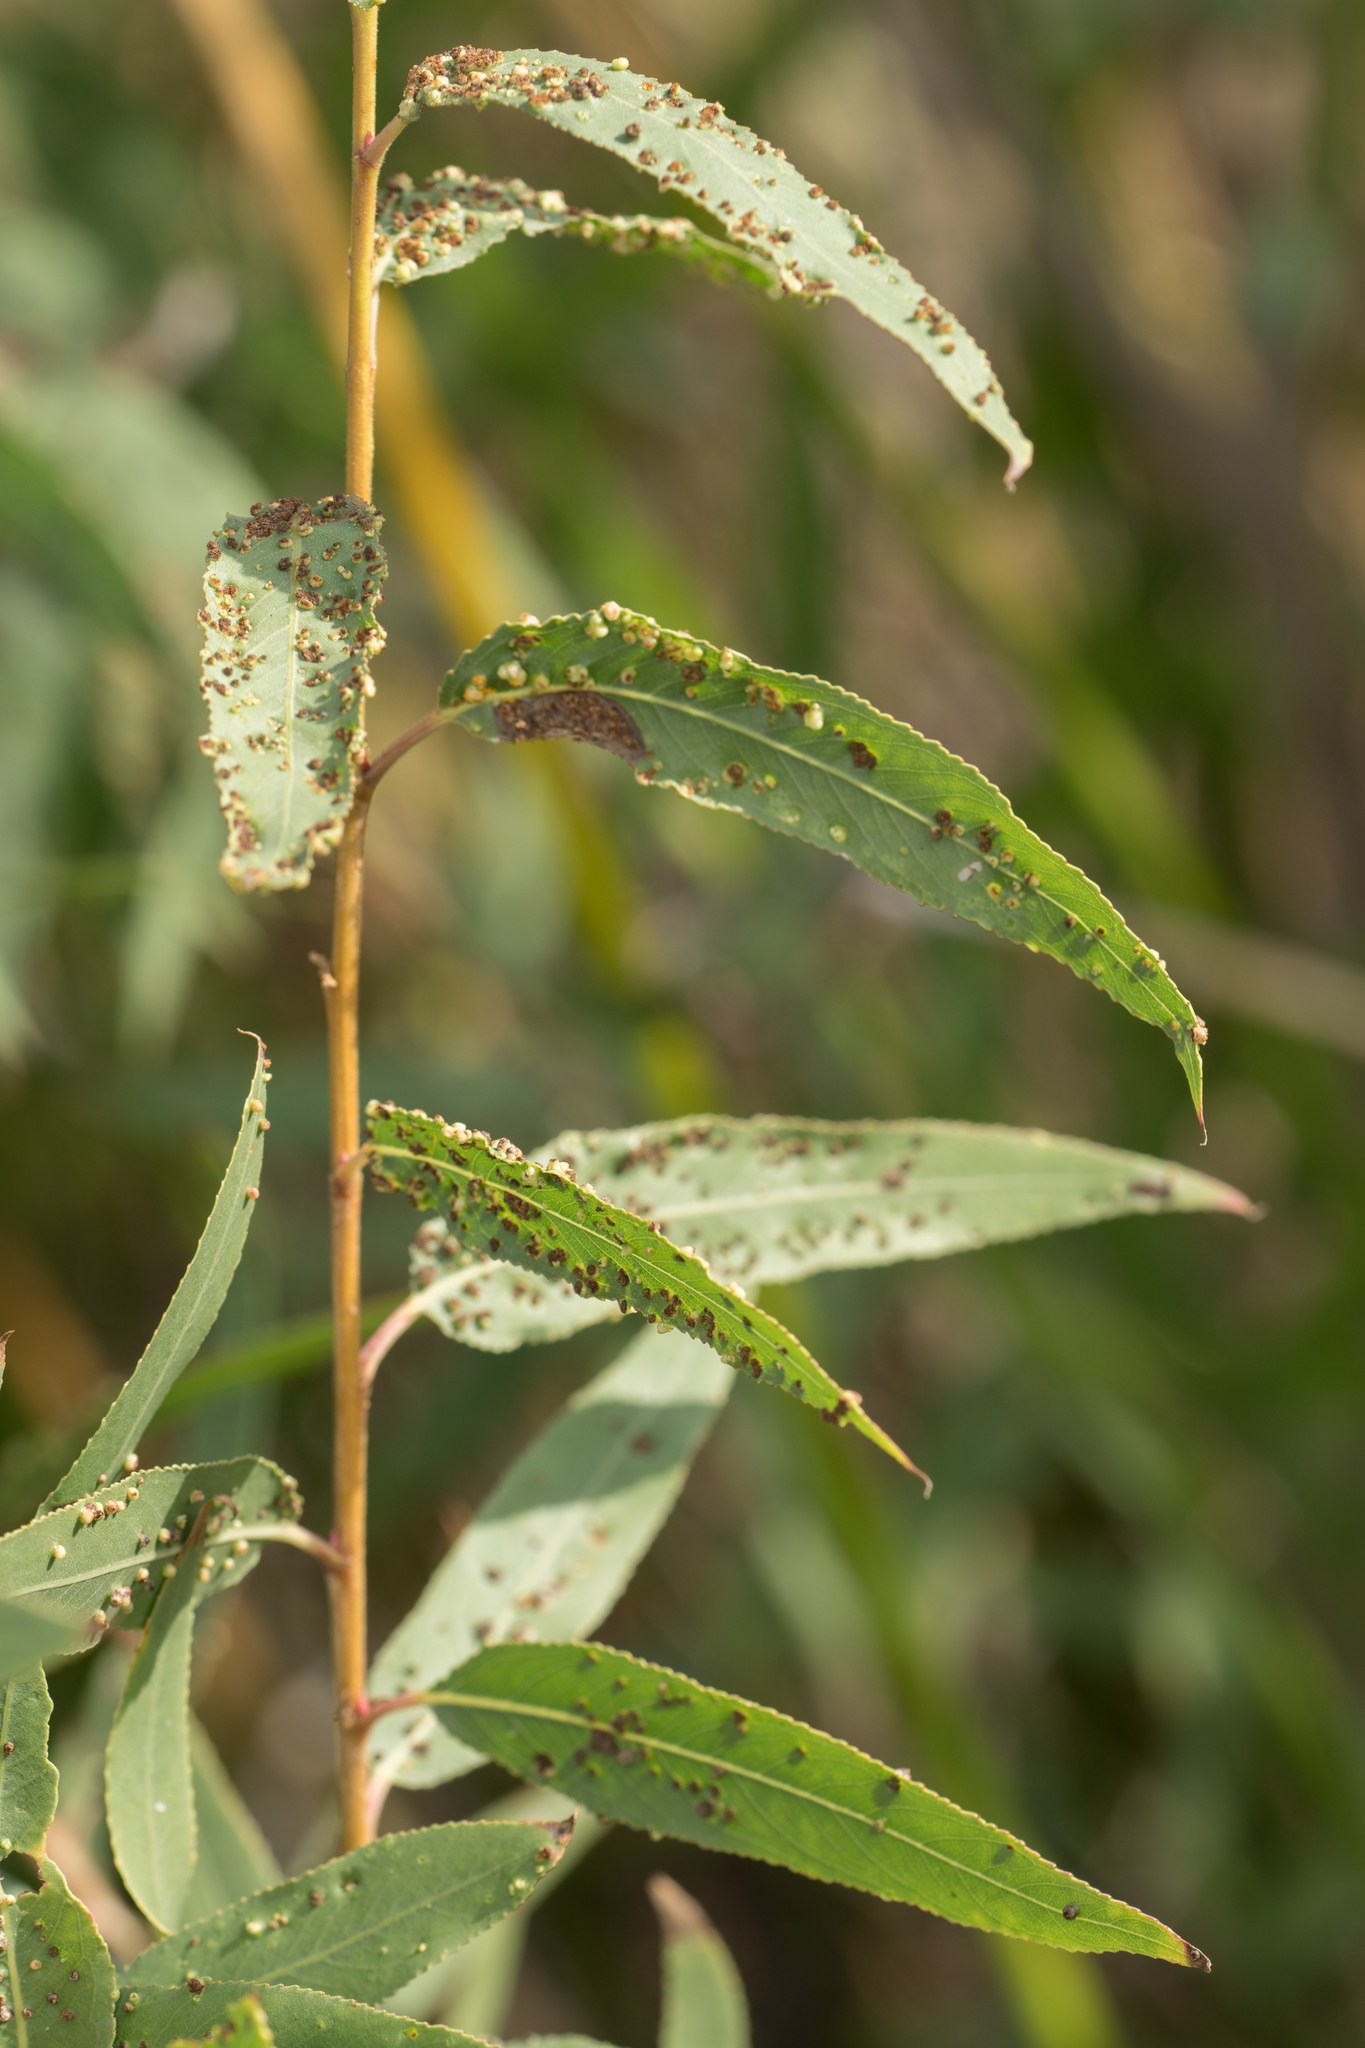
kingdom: Animalia
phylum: Arthropoda
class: Arachnida
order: Trombidiformes
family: Eriophyidae
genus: Aculus
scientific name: Aculus tetanothrix
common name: Willow bead gall mite
